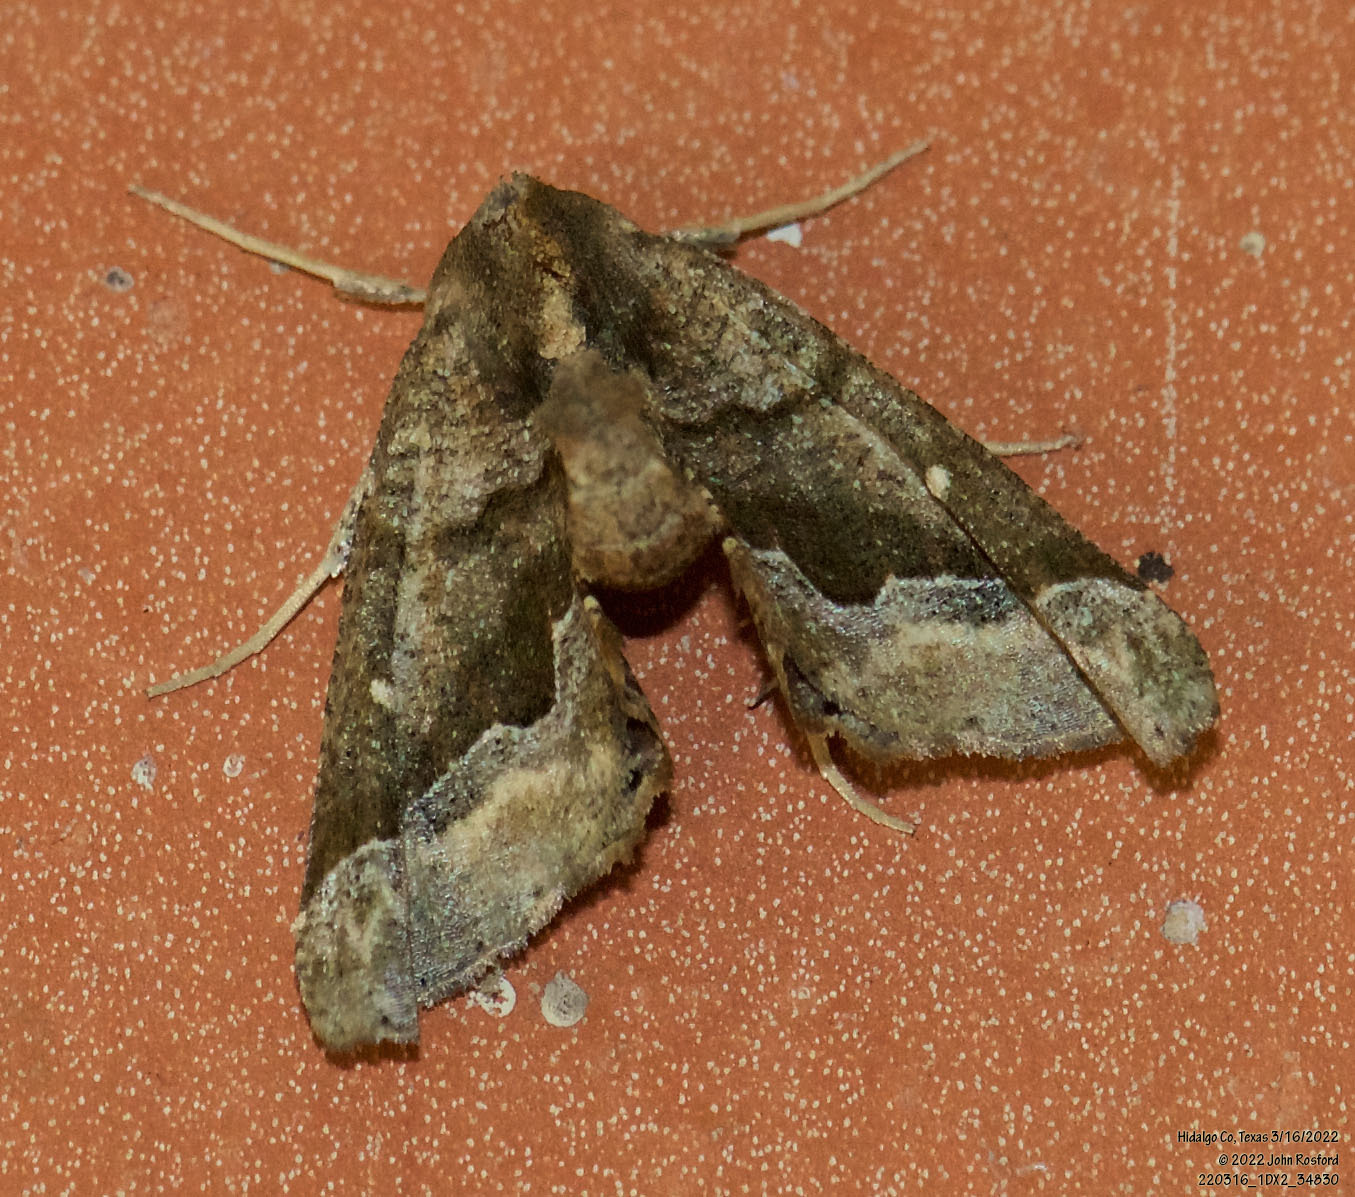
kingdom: Animalia
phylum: Arthropoda
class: Insecta
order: Lepidoptera
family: Geometridae
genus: Pero
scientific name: Pero meskaria
